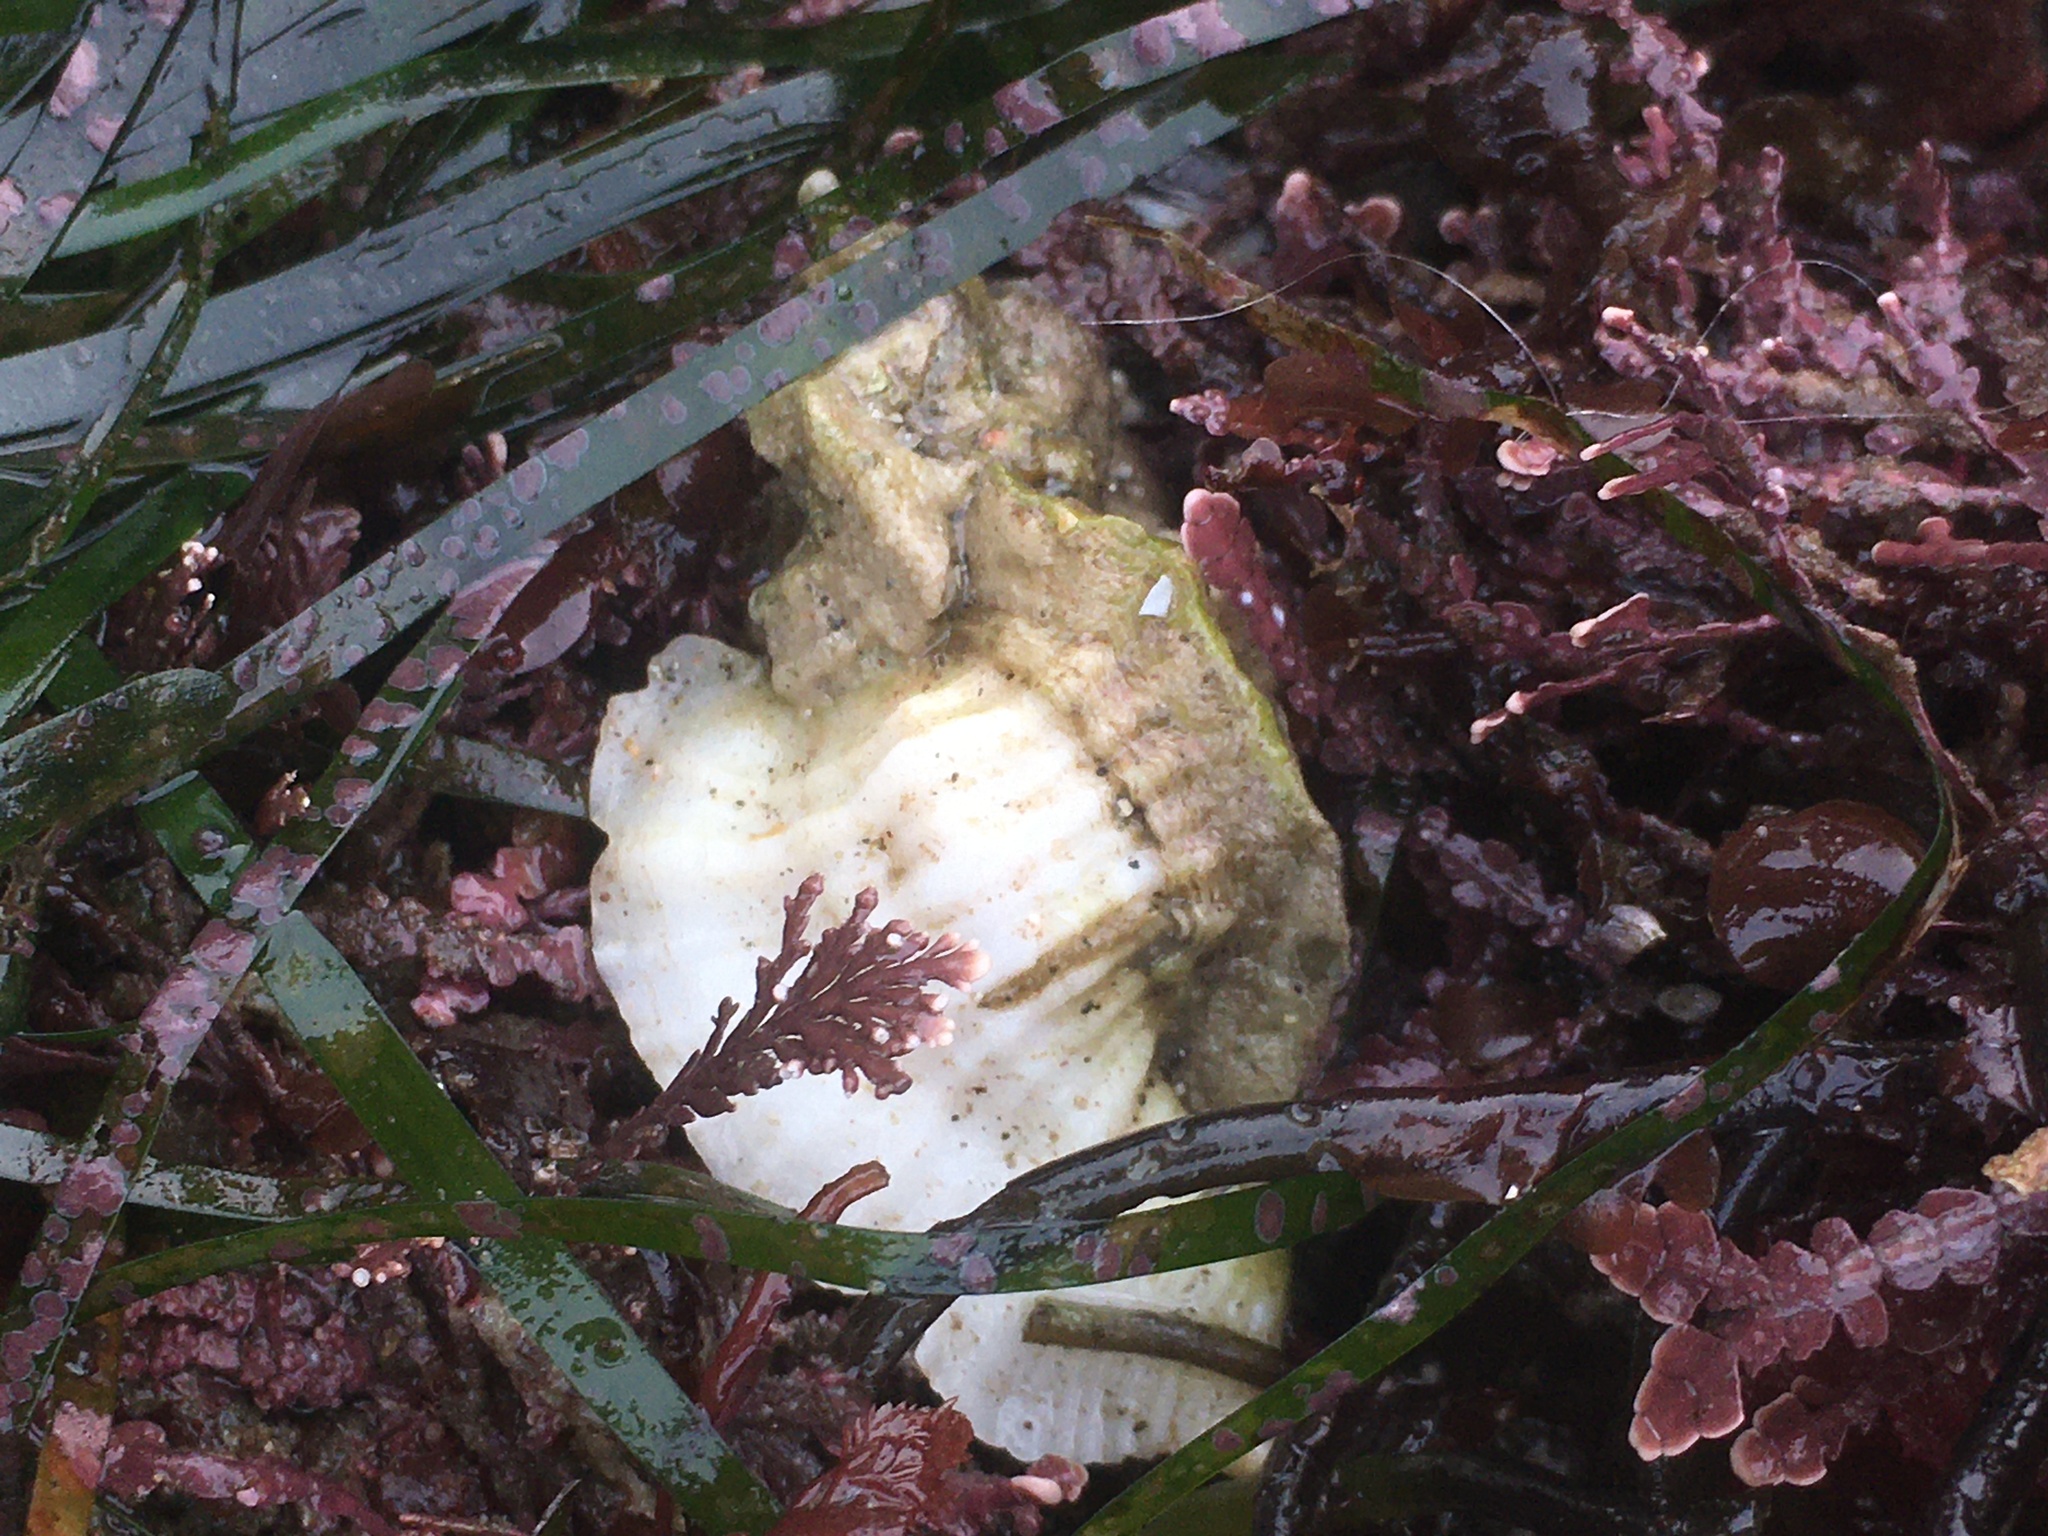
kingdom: Animalia
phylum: Mollusca
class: Gastropoda
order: Neogastropoda
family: Muricidae
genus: Ceratostoma
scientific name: Ceratostoma nuttalli
